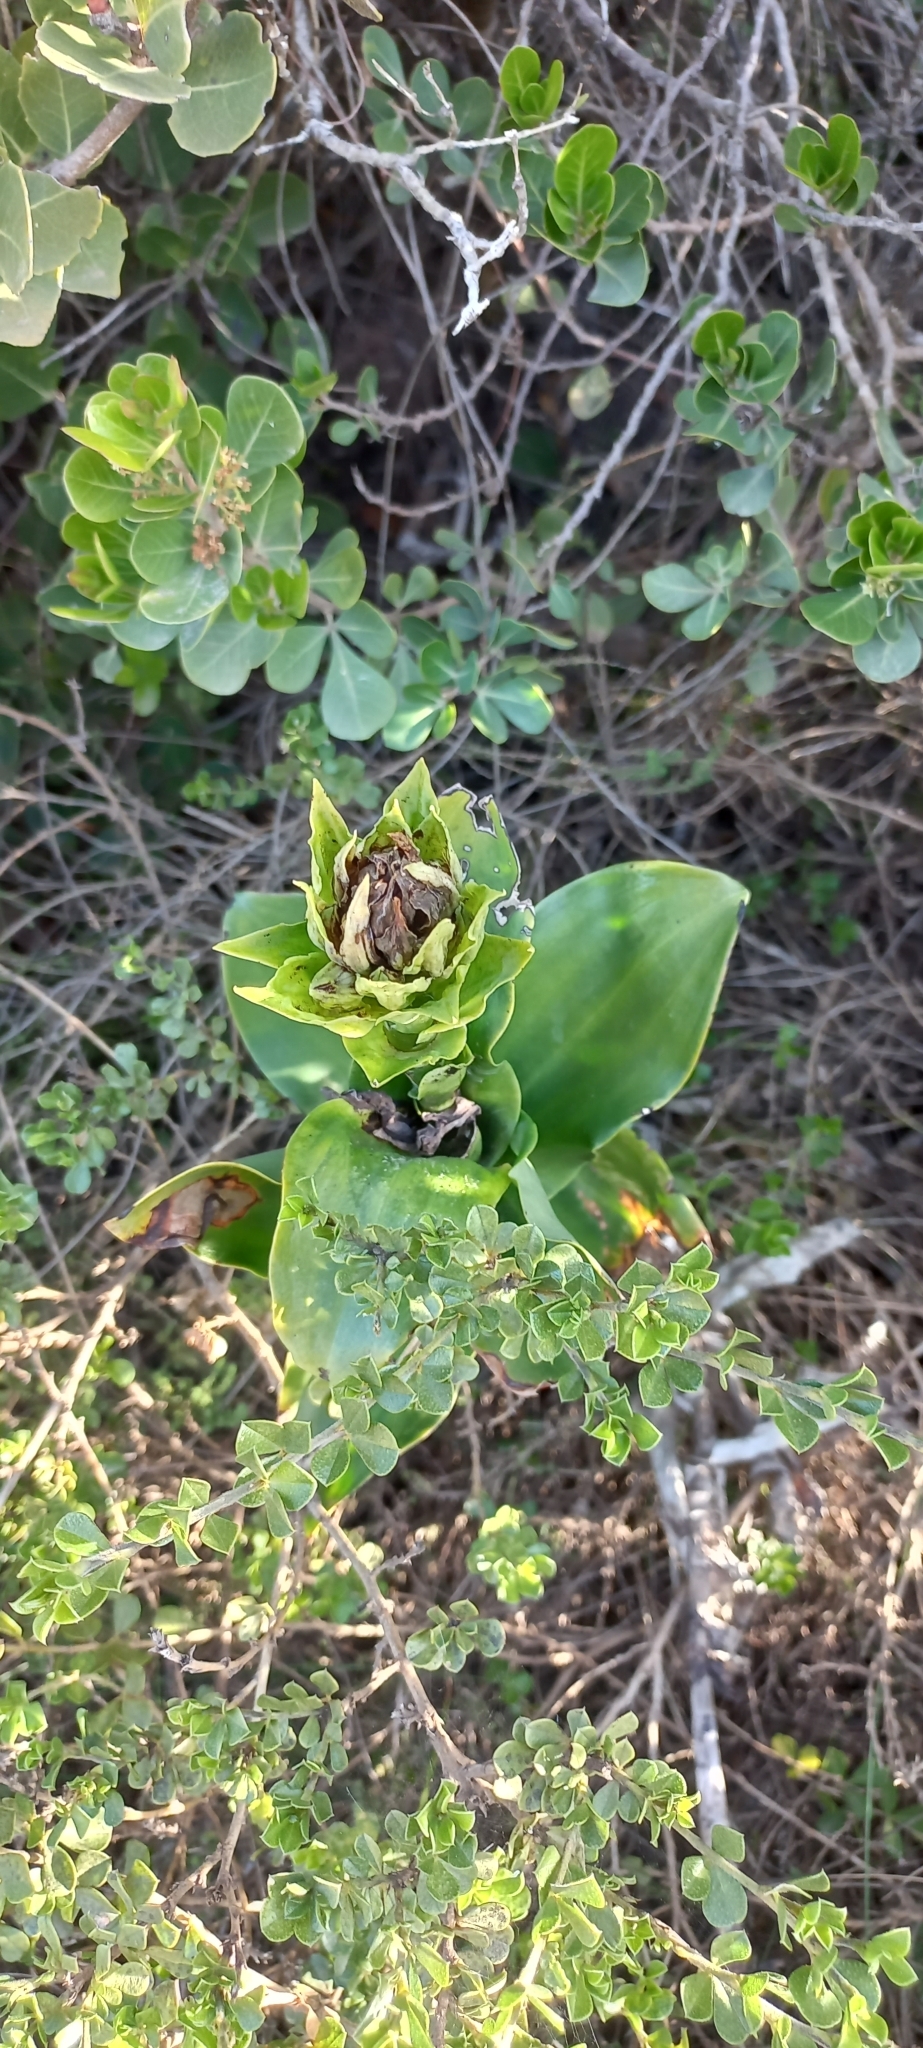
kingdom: Plantae
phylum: Tracheophyta
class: Liliopsida
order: Asparagales
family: Orchidaceae
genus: Bonatea
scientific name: Bonatea speciosa
